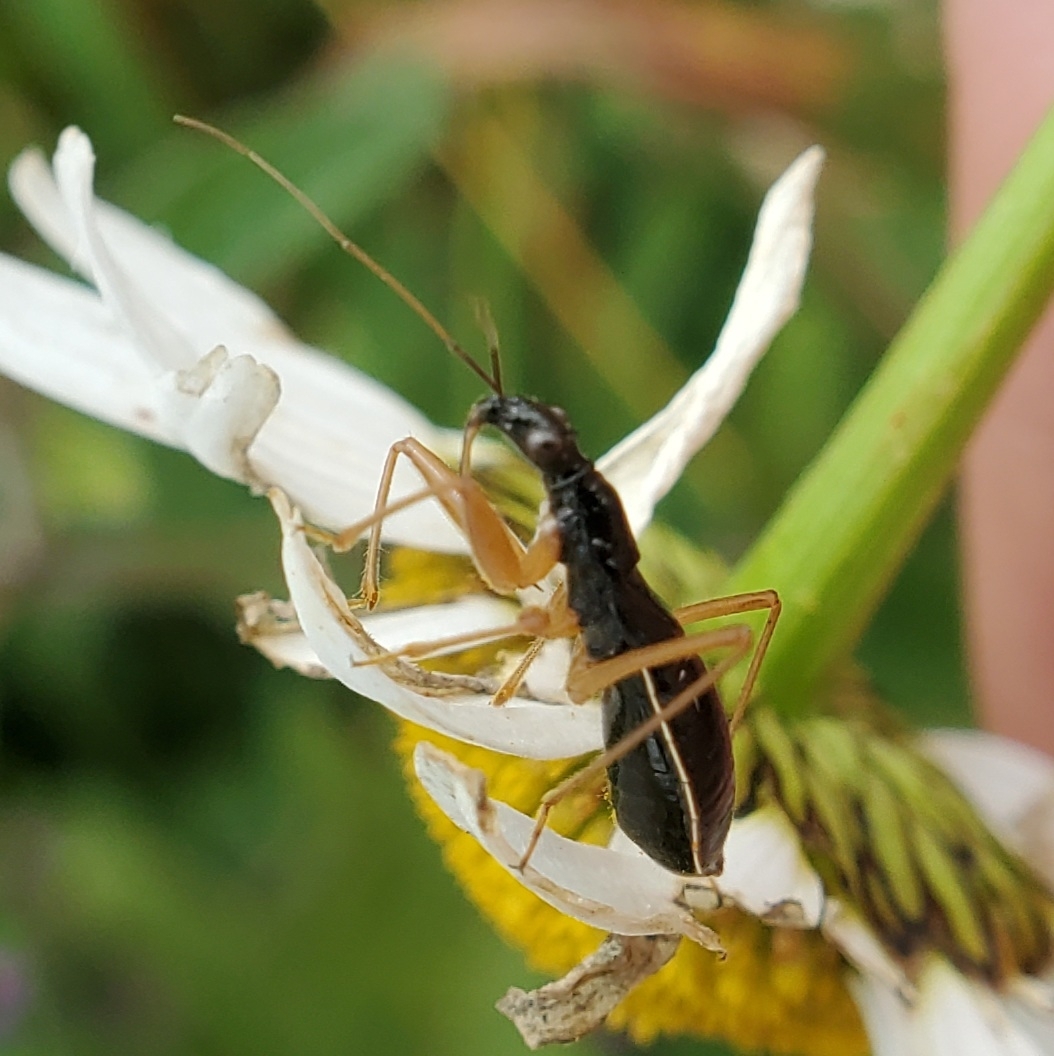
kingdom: Animalia
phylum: Arthropoda
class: Insecta
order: Hemiptera
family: Nabidae
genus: Nabis
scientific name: Nabis
